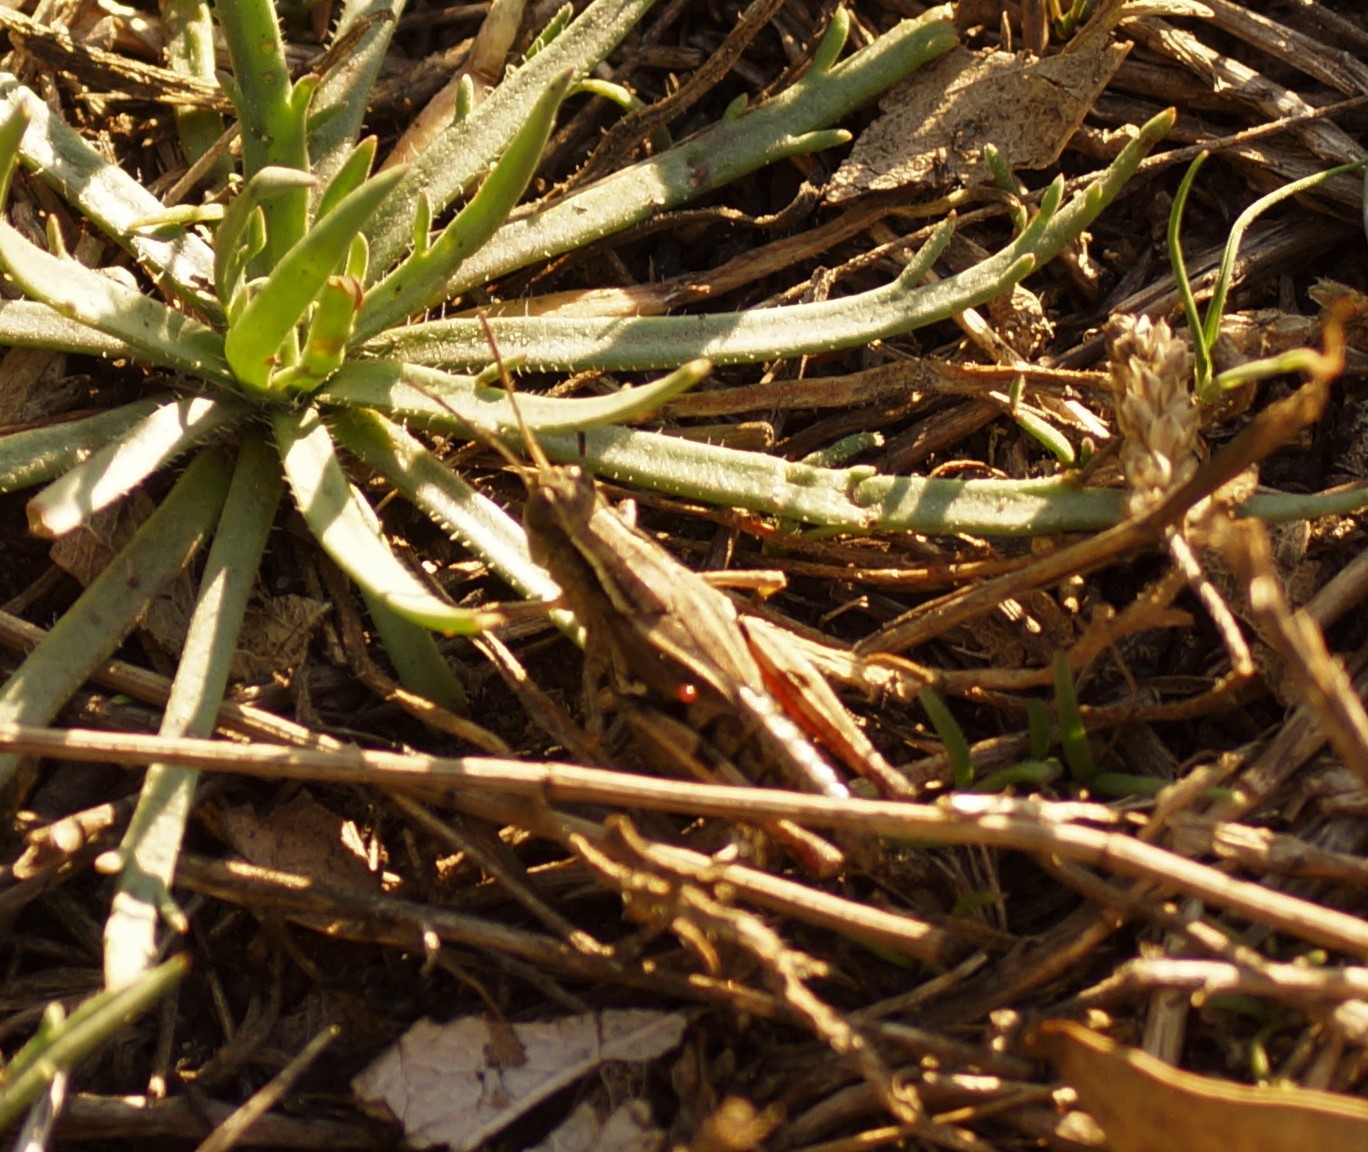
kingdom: Animalia
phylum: Arthropoda
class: Insecta
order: Orthoptera
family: Acrididae
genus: Phaulacridium
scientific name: Phaulacridium vittatum
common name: Wingless grasshopper
